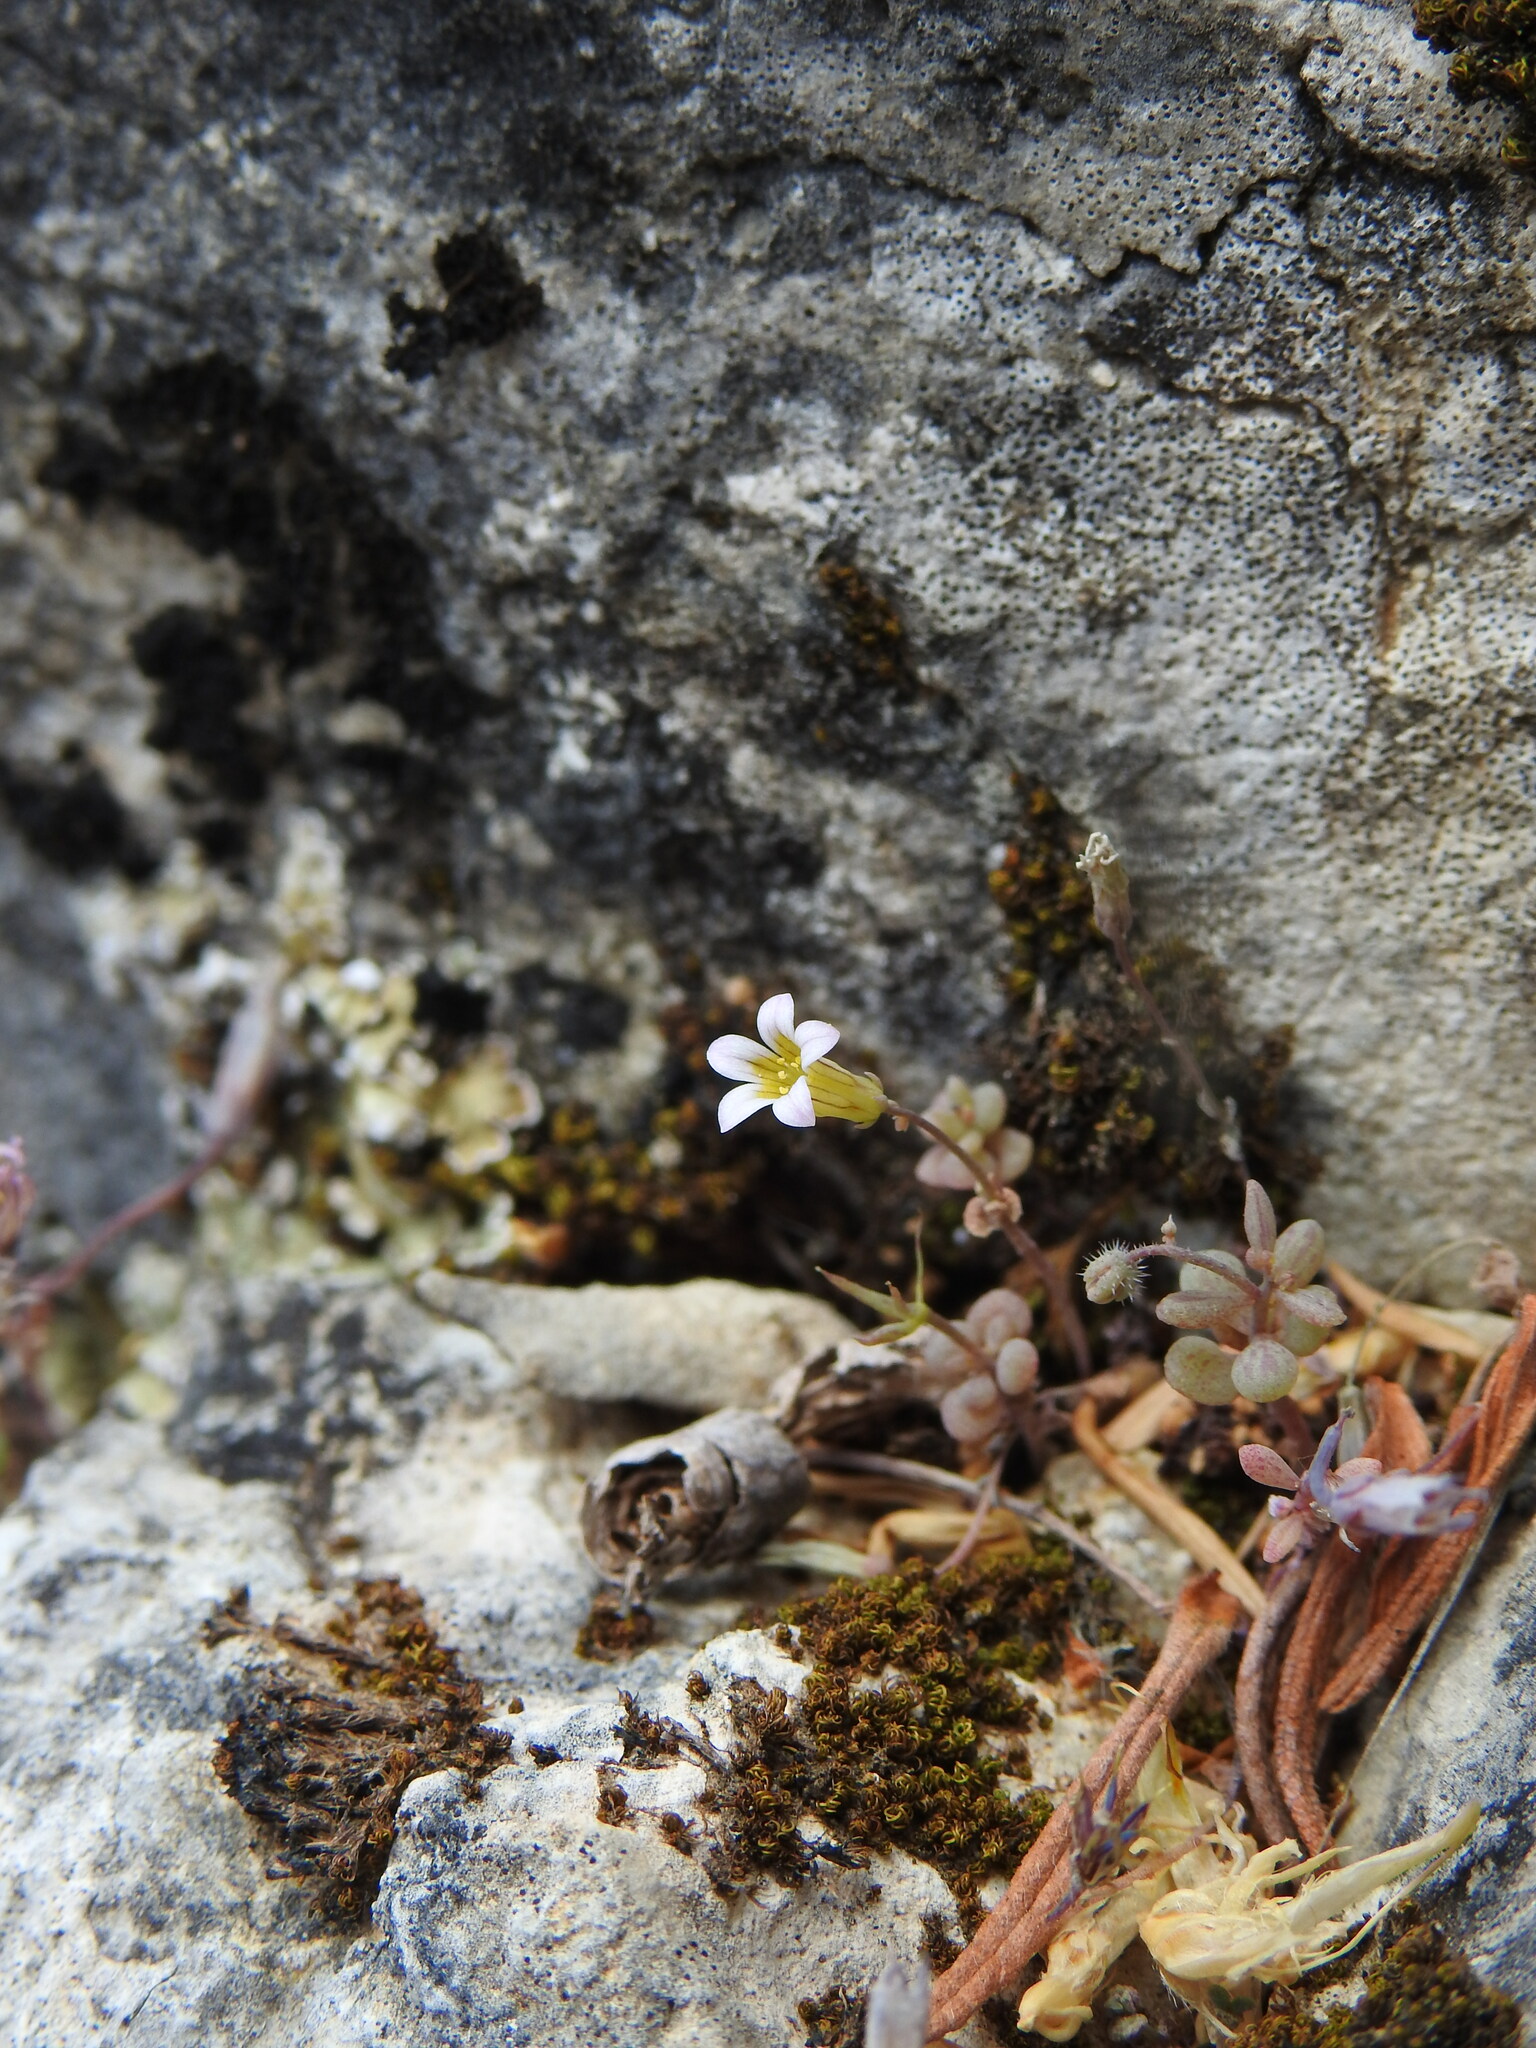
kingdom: Plantae
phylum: Tracheophyta
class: Magnoliopsida
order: Saxifragales
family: Crassulaceae
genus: Sedum
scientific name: Sedum mucizonia
